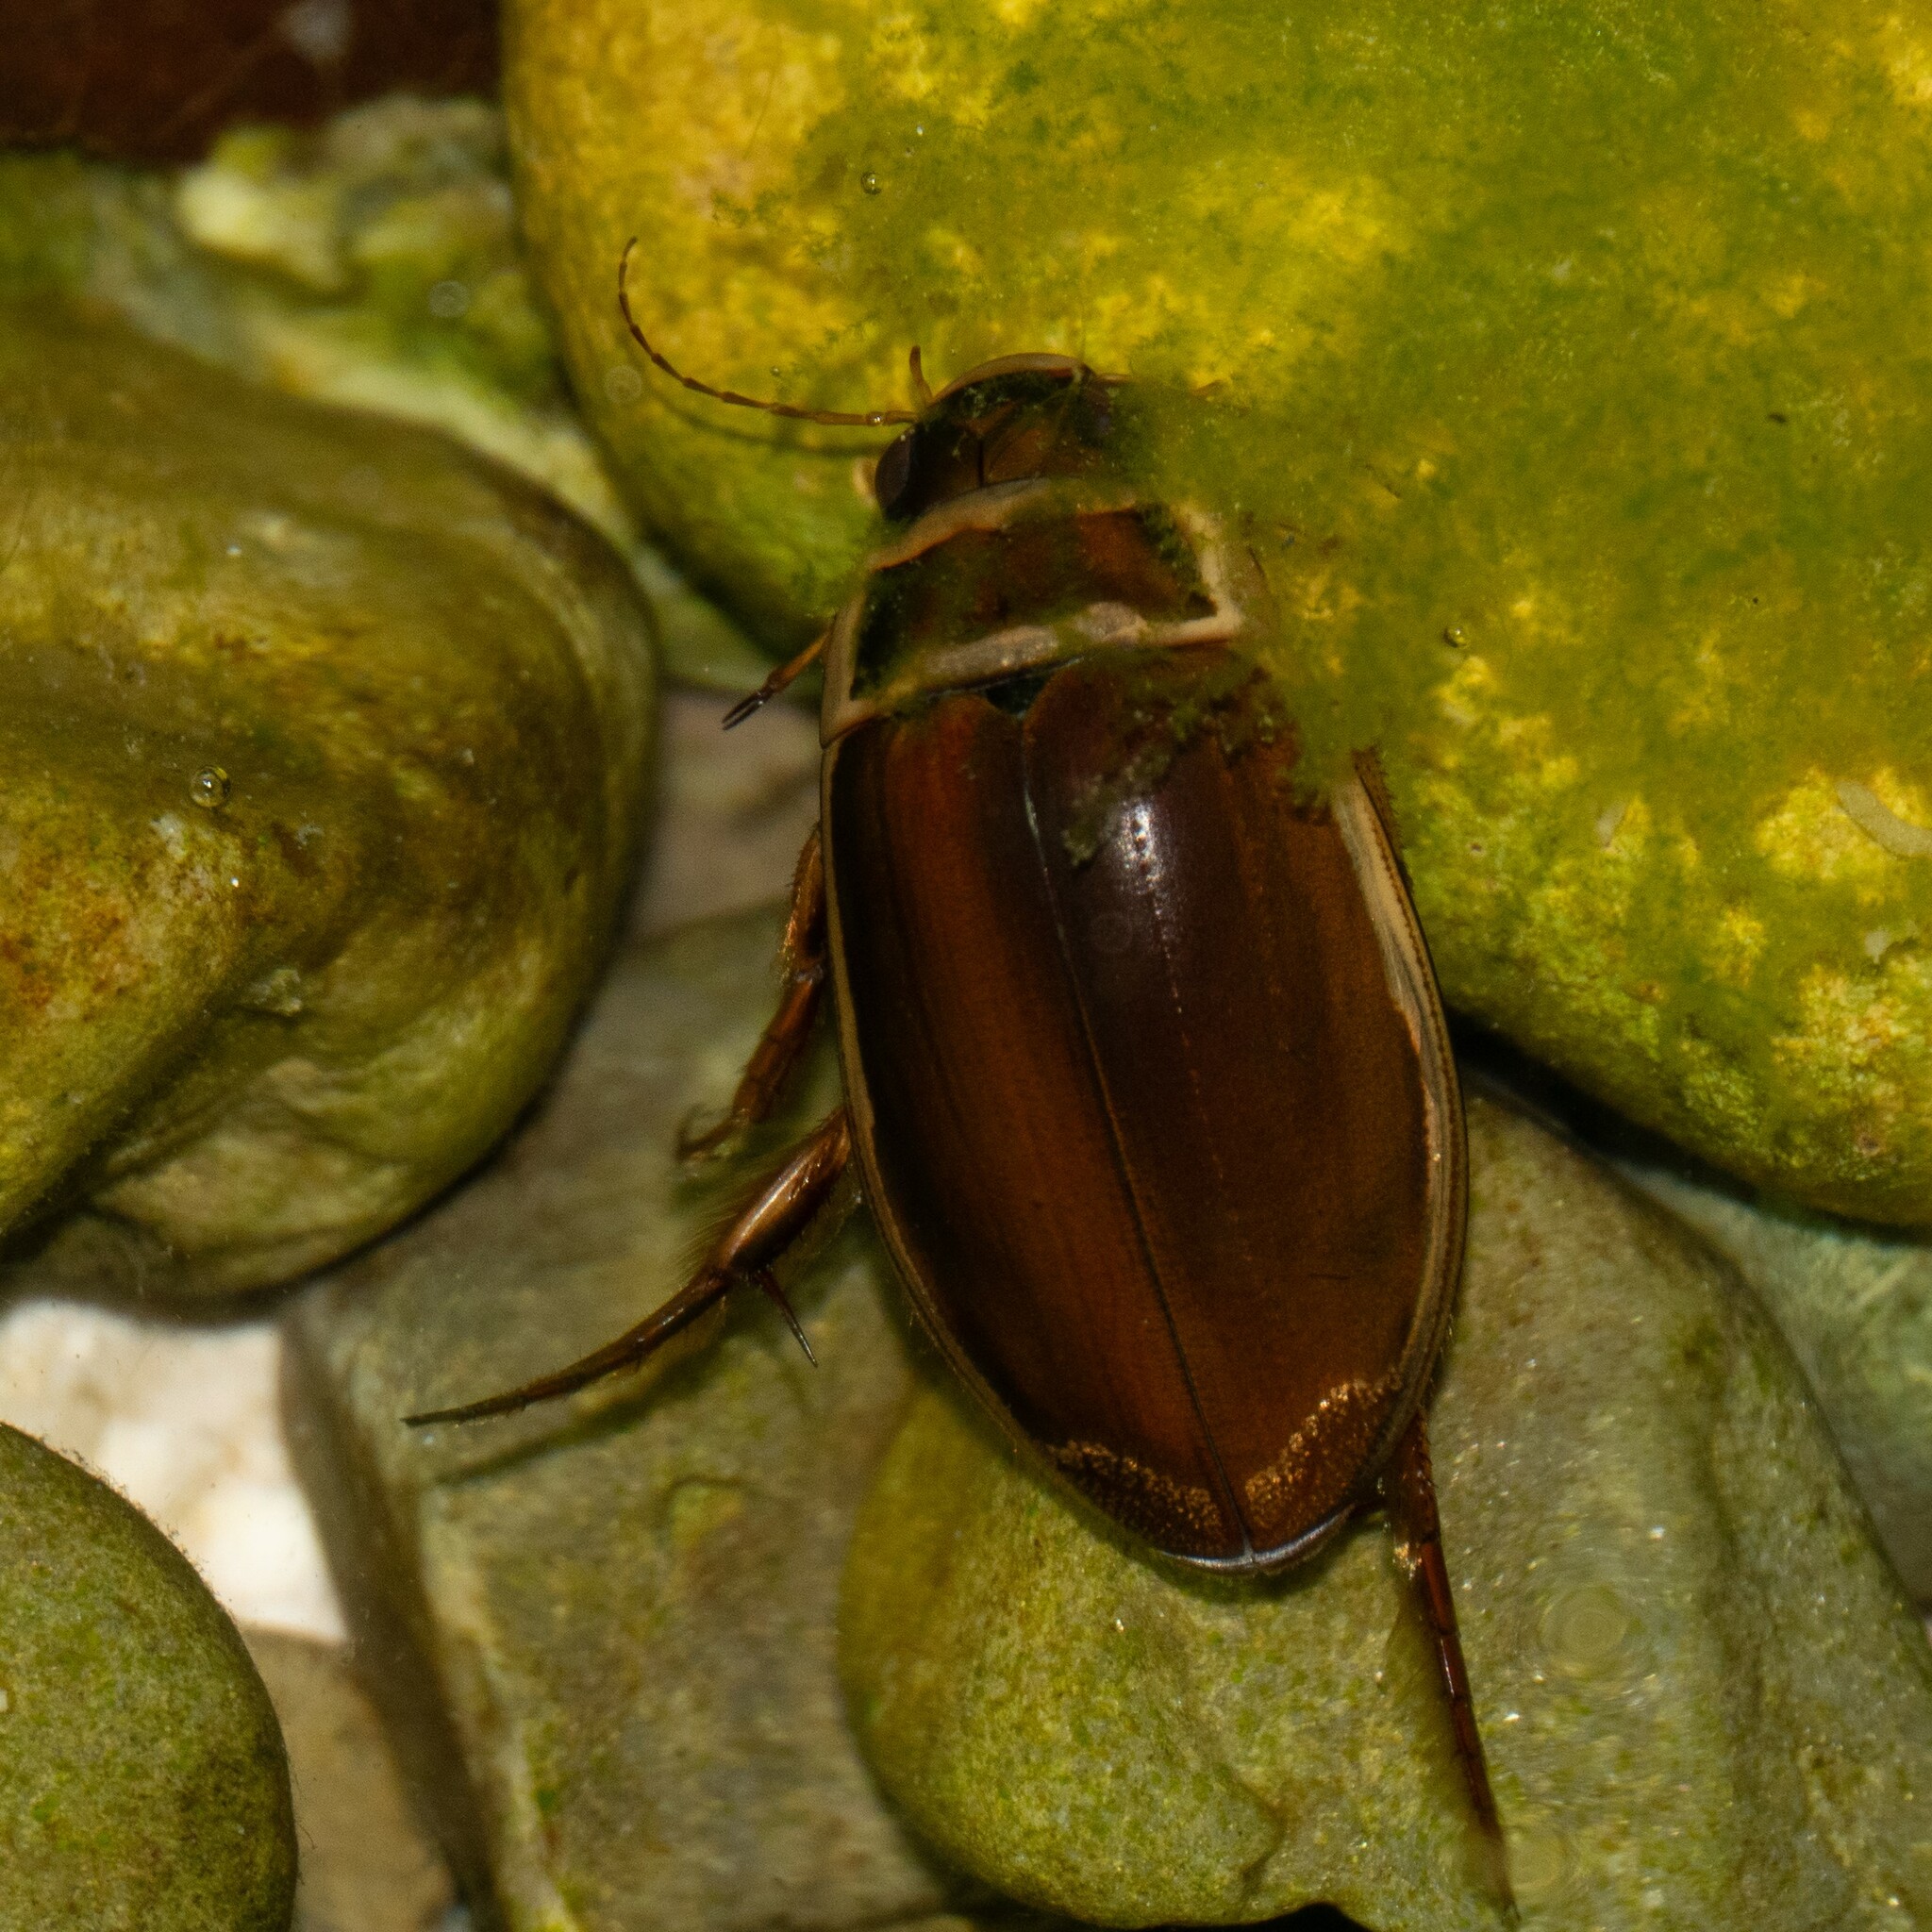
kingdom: Animalia
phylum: Arthropoda
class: Insecta
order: Coleoptera
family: Dytiscidae
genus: Dytiscus
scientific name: Dytiscus marginalis
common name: Great water beetle
